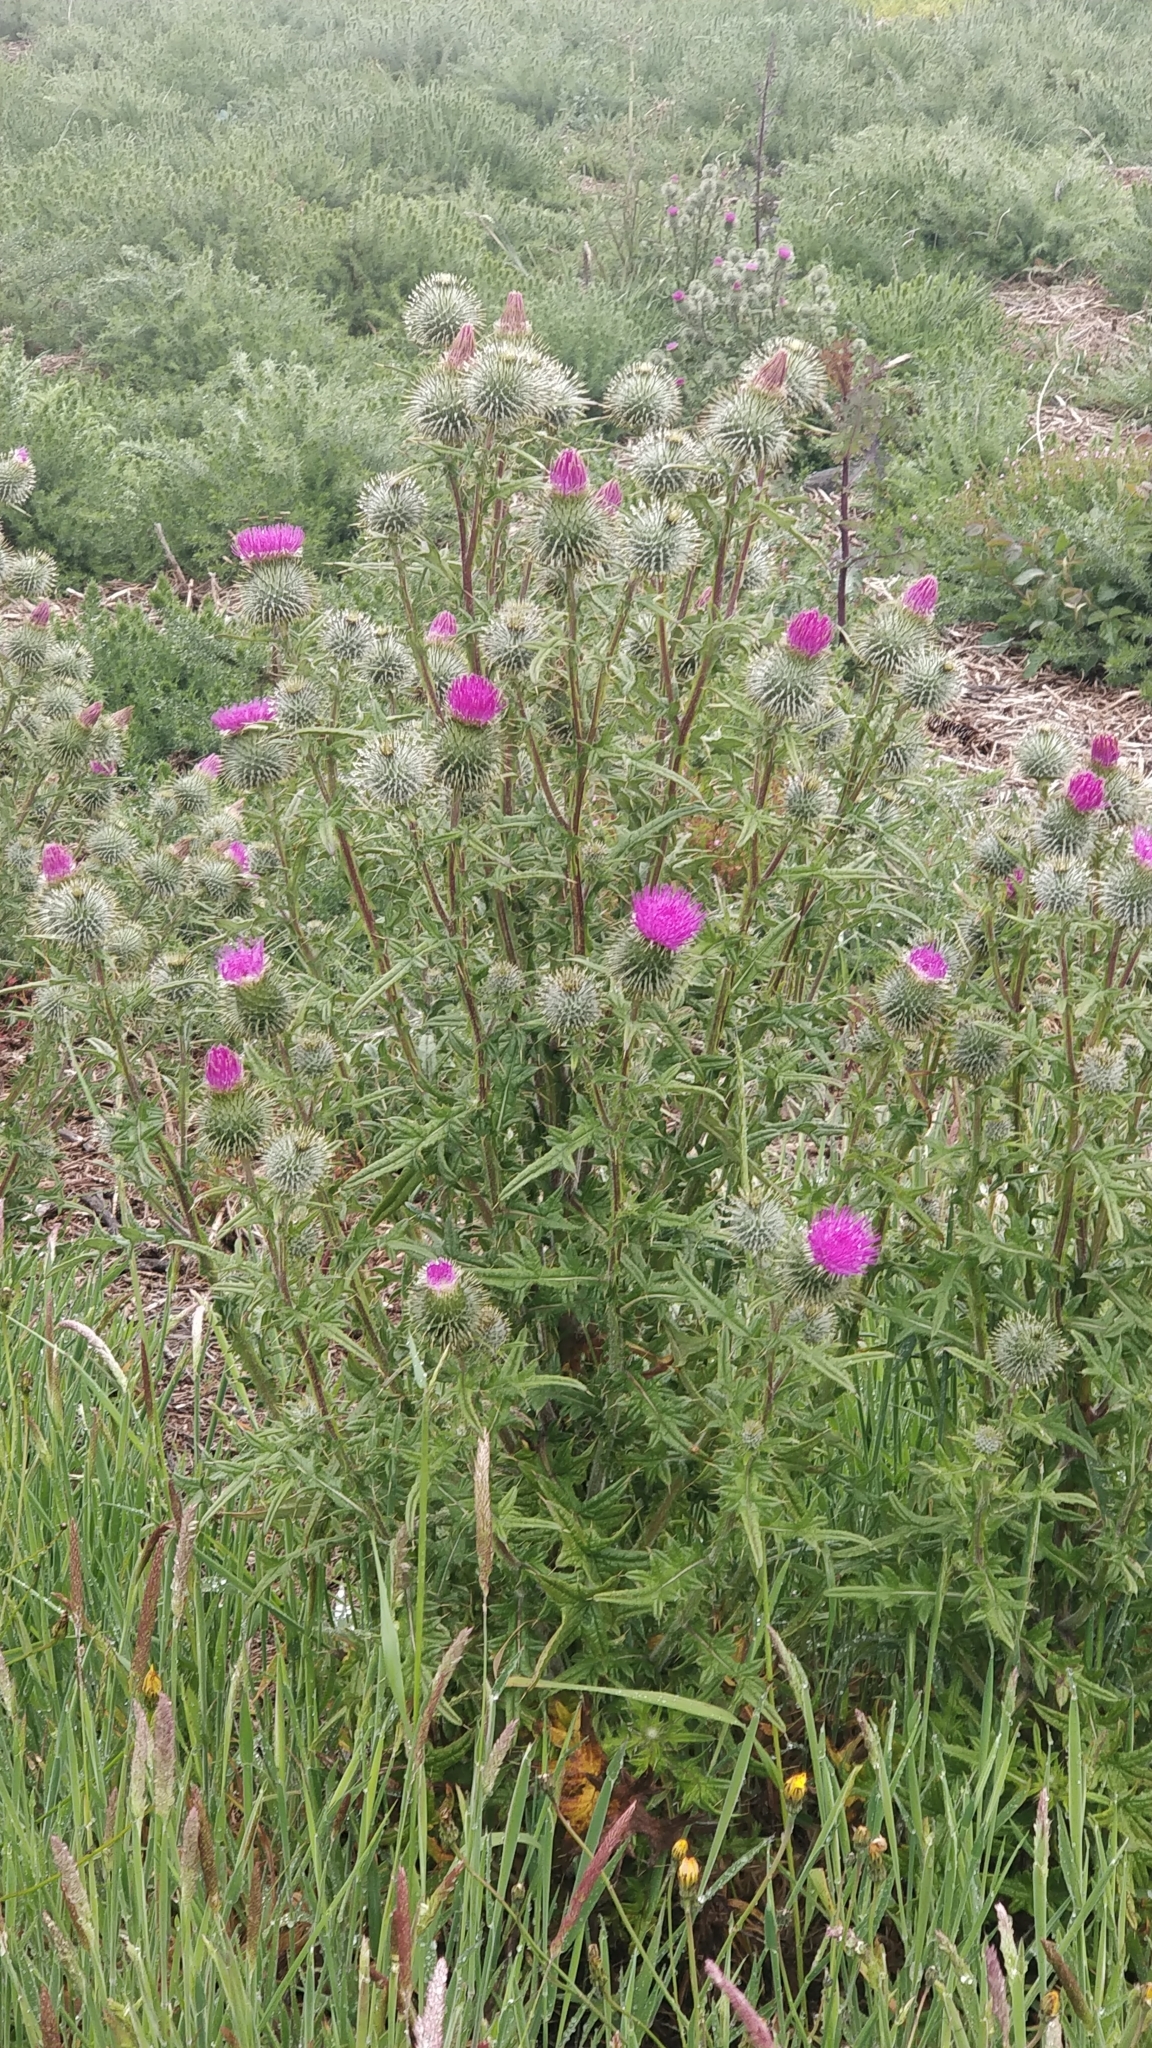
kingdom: Plantae
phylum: Tracheophyta
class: Magnoliopsida
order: Asterales
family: Asteraceae
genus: Cirsium
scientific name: Cirsium vulgare
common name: Bull thistle
